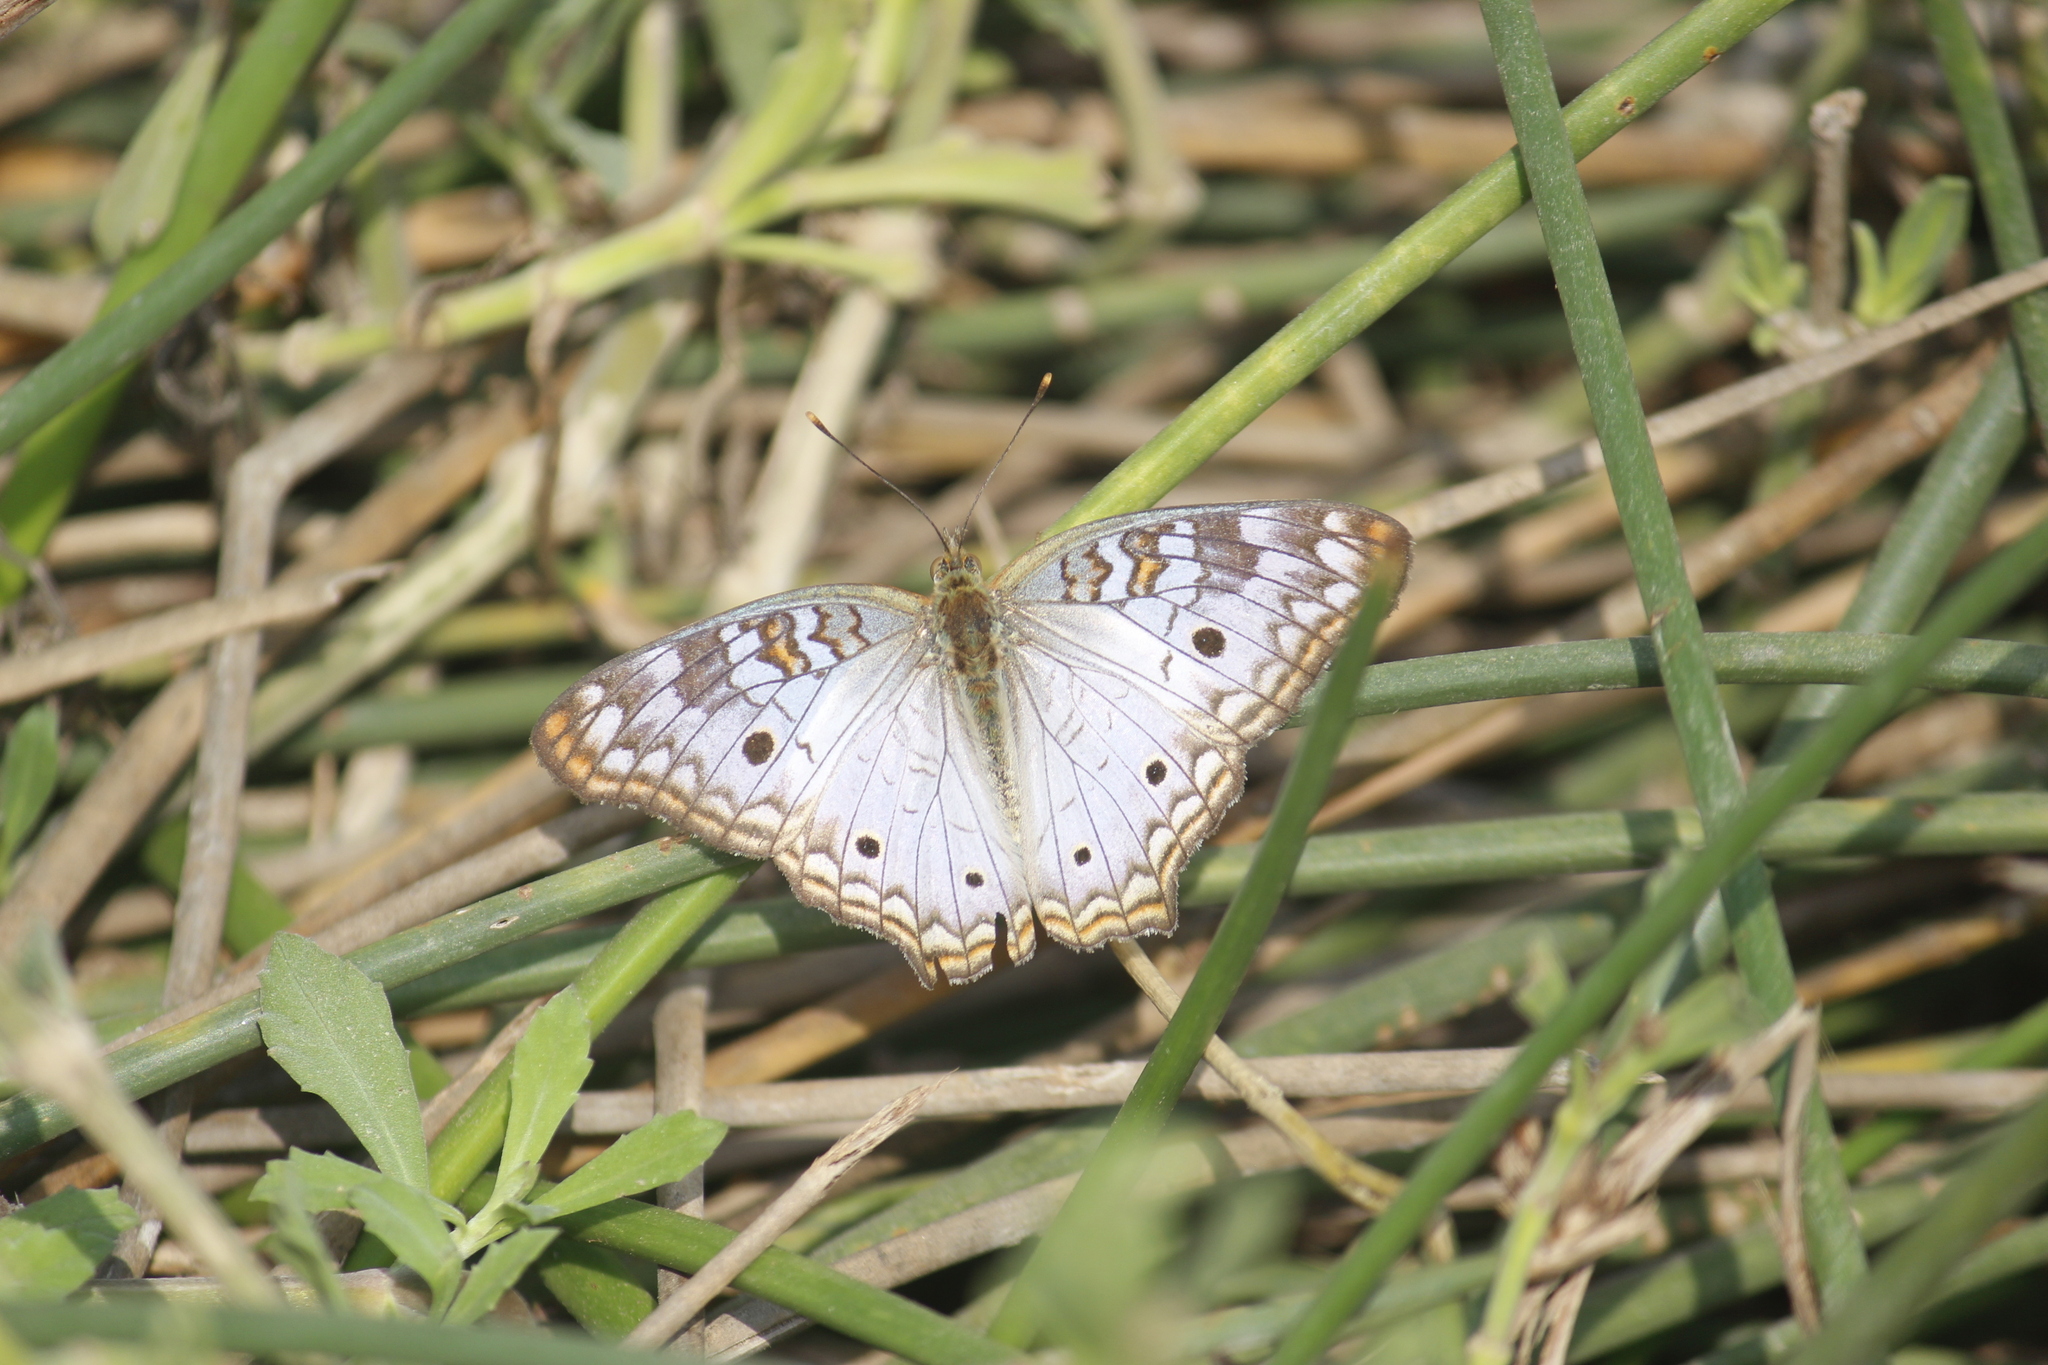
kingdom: Animalia
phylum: Arthropoda
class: Insecta
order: Lepidoptera
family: Nymphalidae
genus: Anartia
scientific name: Anartia jatrophae
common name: White peacock
